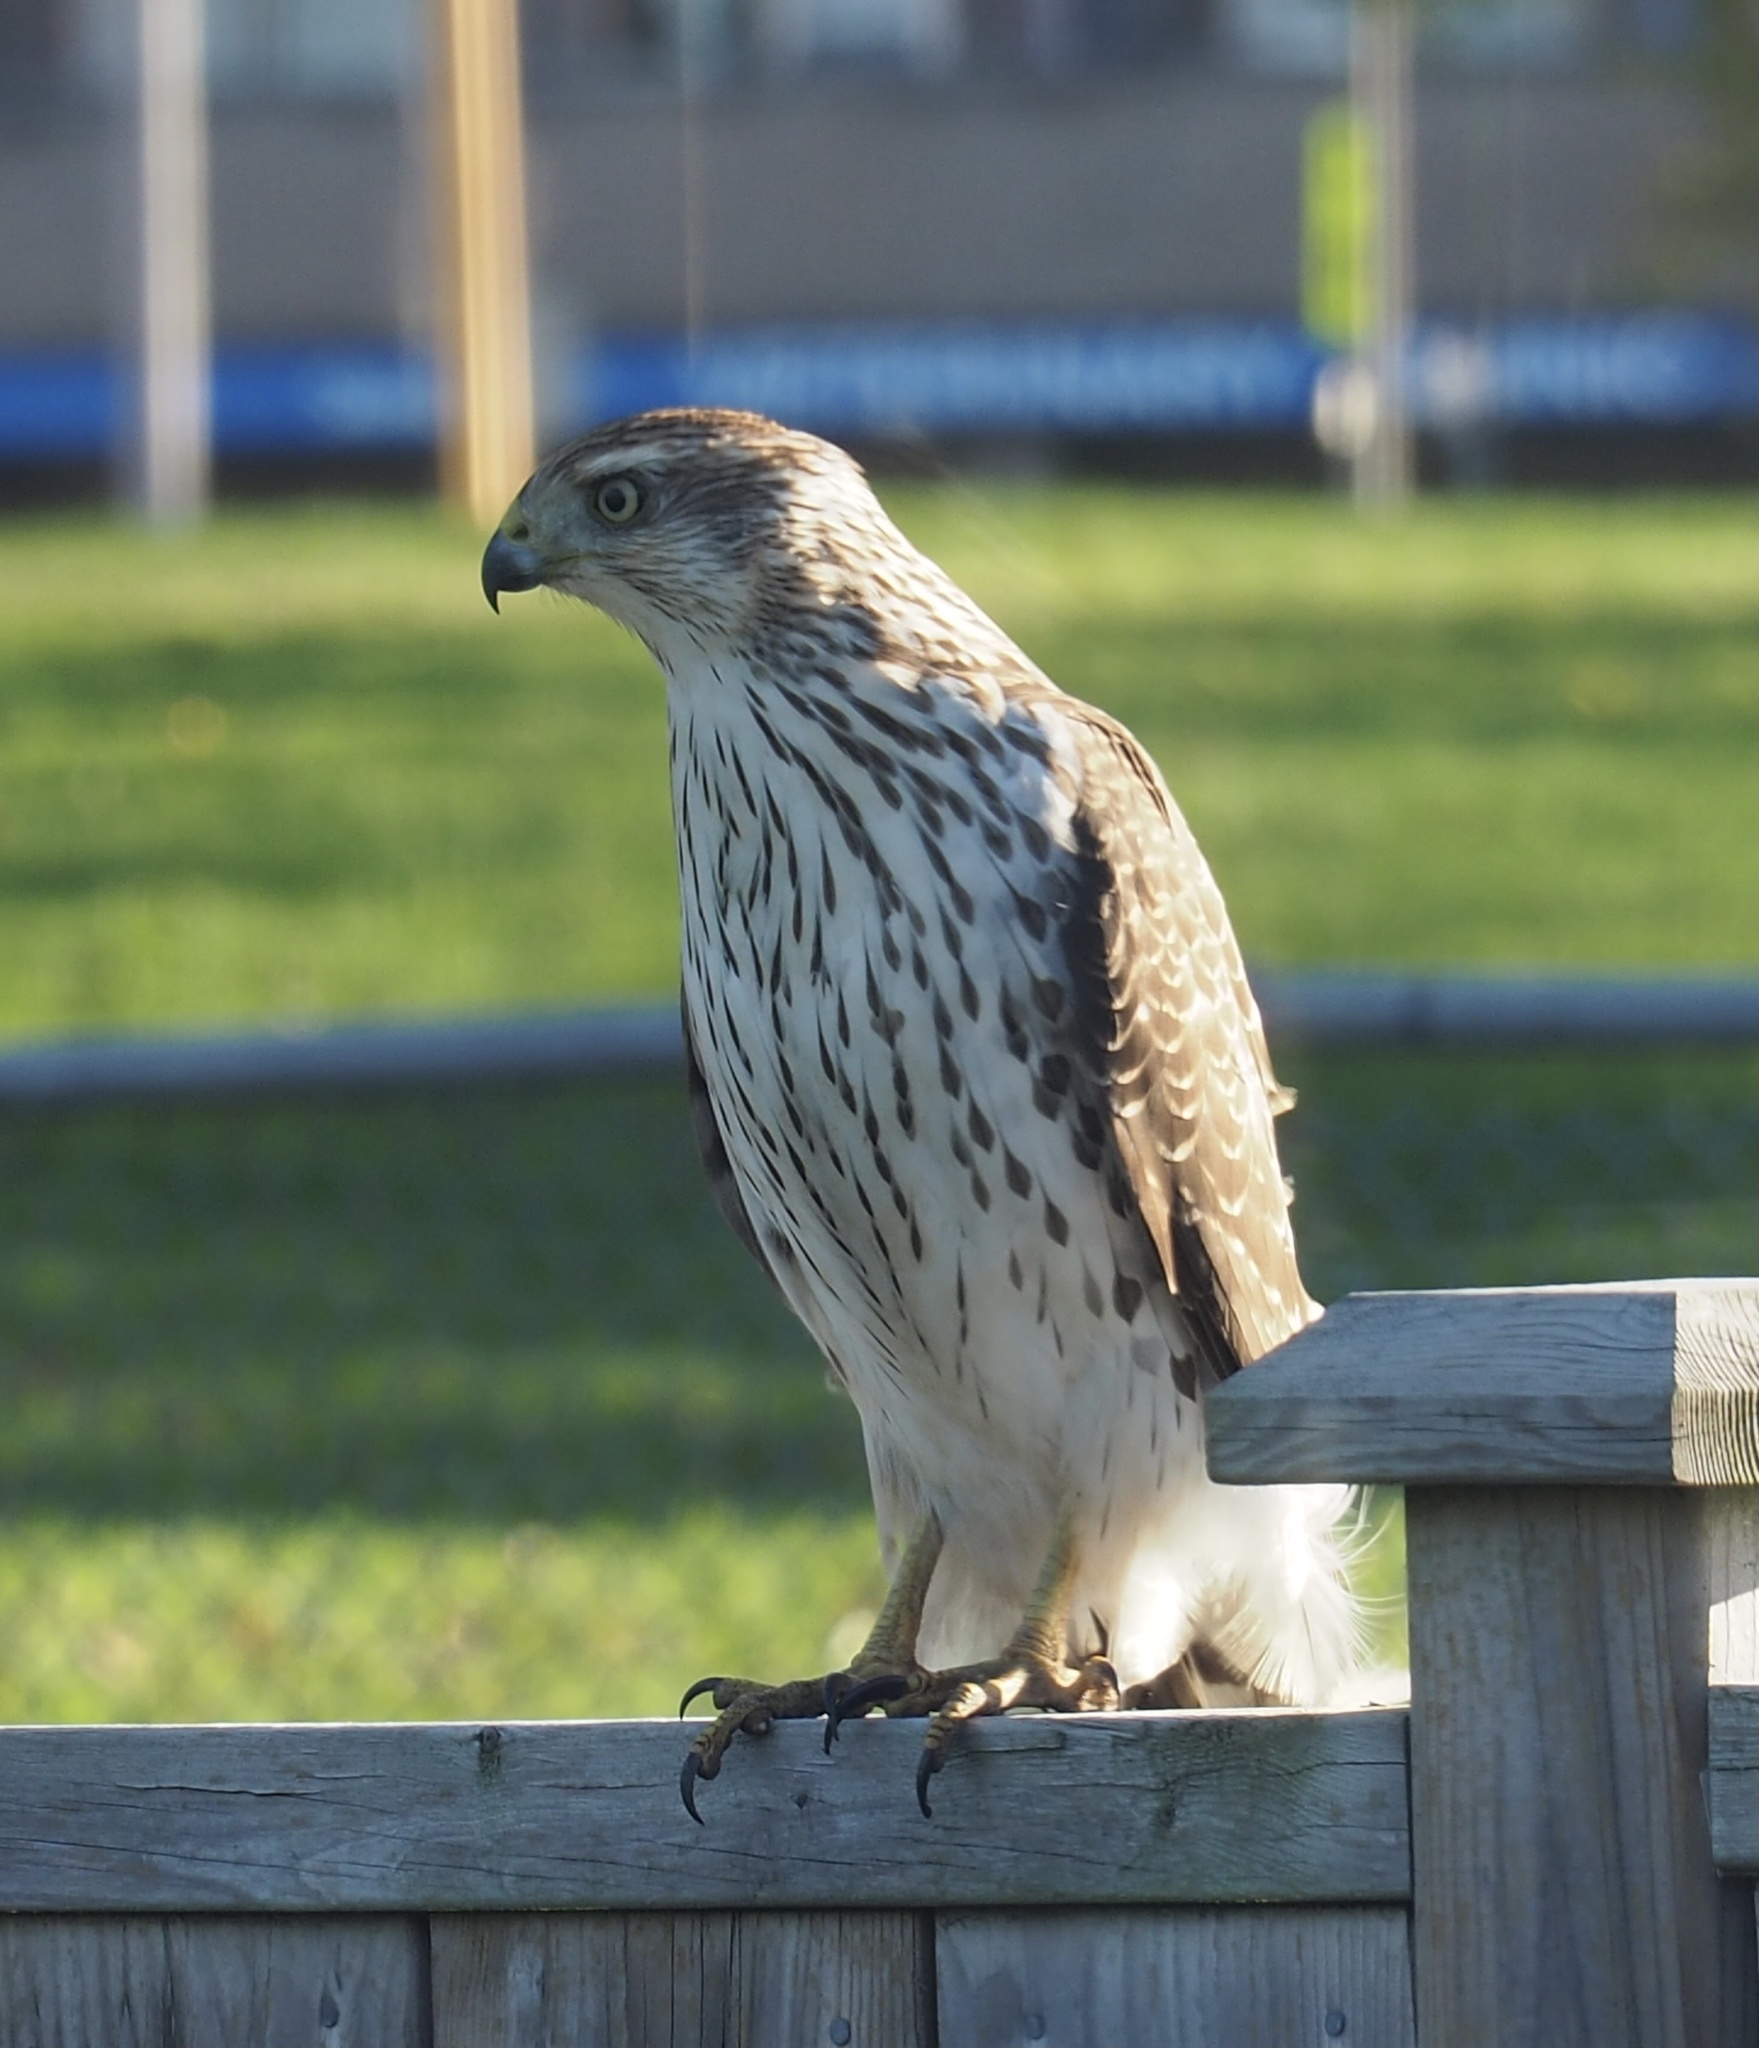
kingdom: Animalia
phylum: Chordata
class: Aves
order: Accipitriformes
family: Accipitridae
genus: Accipiter
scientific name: Accipiter cooperii
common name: Cooper's hawk
